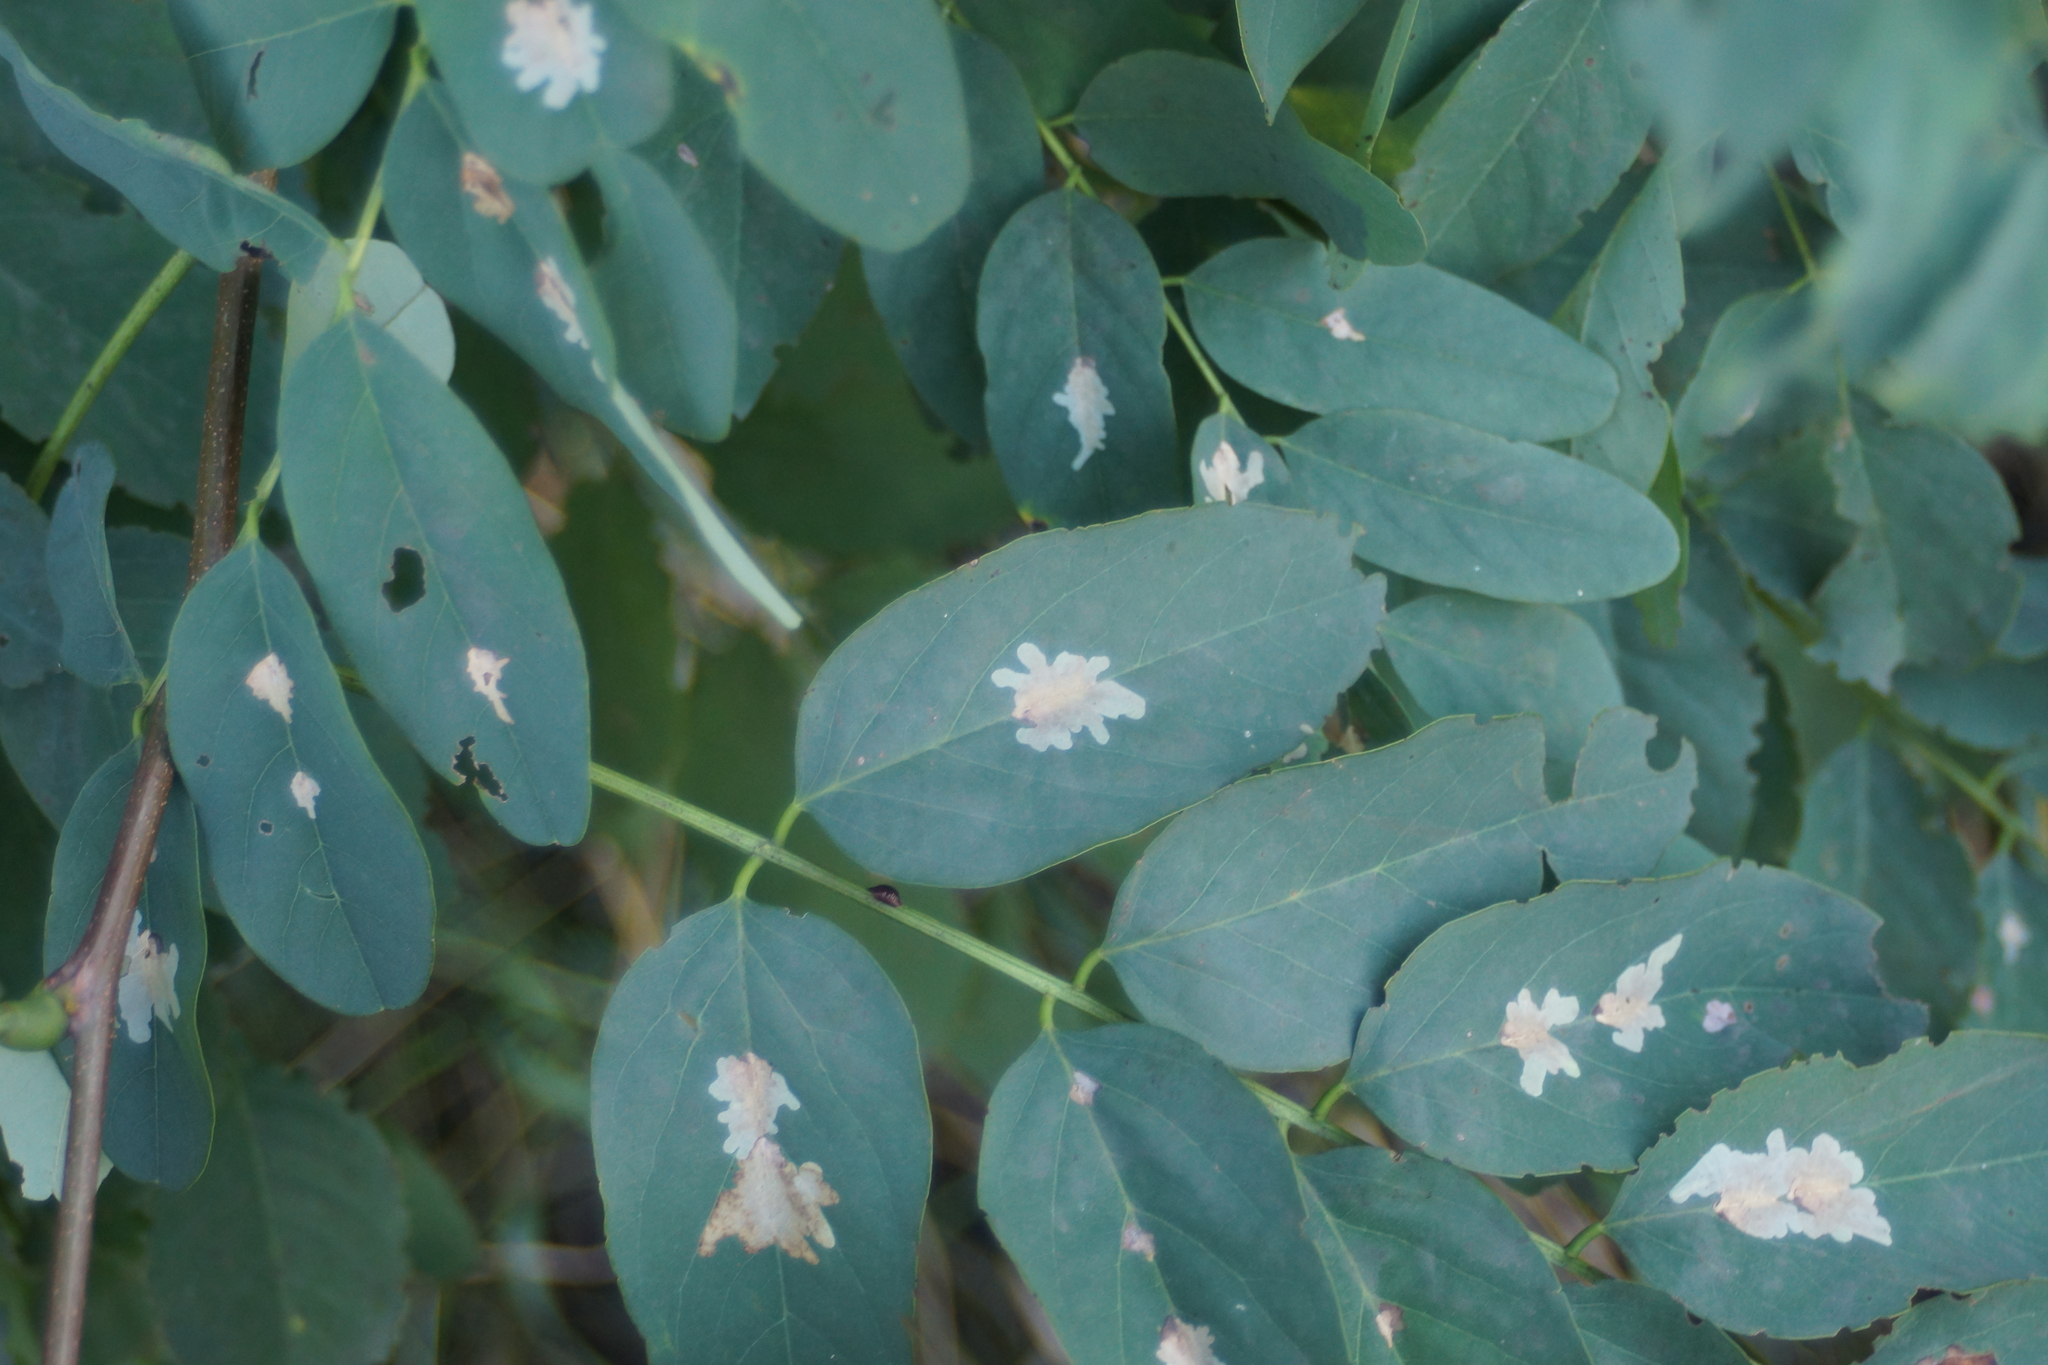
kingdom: Animalia
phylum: Arthropoda
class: Insecta
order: Lepidoptera
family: Gracillariidae
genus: Parectopa
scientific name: Parectopa robiniella
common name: Locust digitate leafminer
